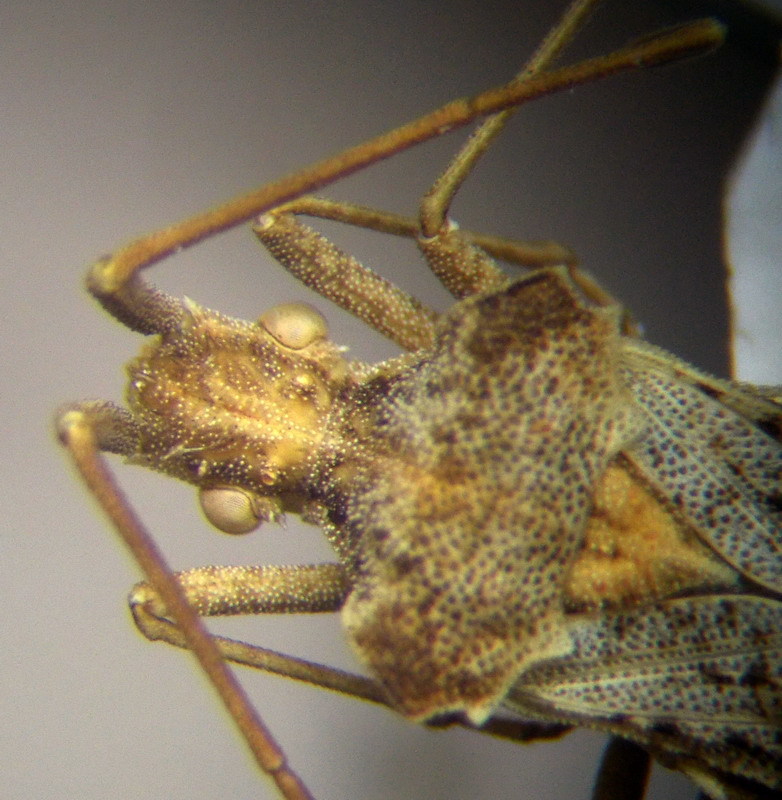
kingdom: Animalia
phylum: Arthropoda
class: Insecta
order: Hemiptera
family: Coreidae
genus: Centrocoris
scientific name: Centrocoris spiniger
